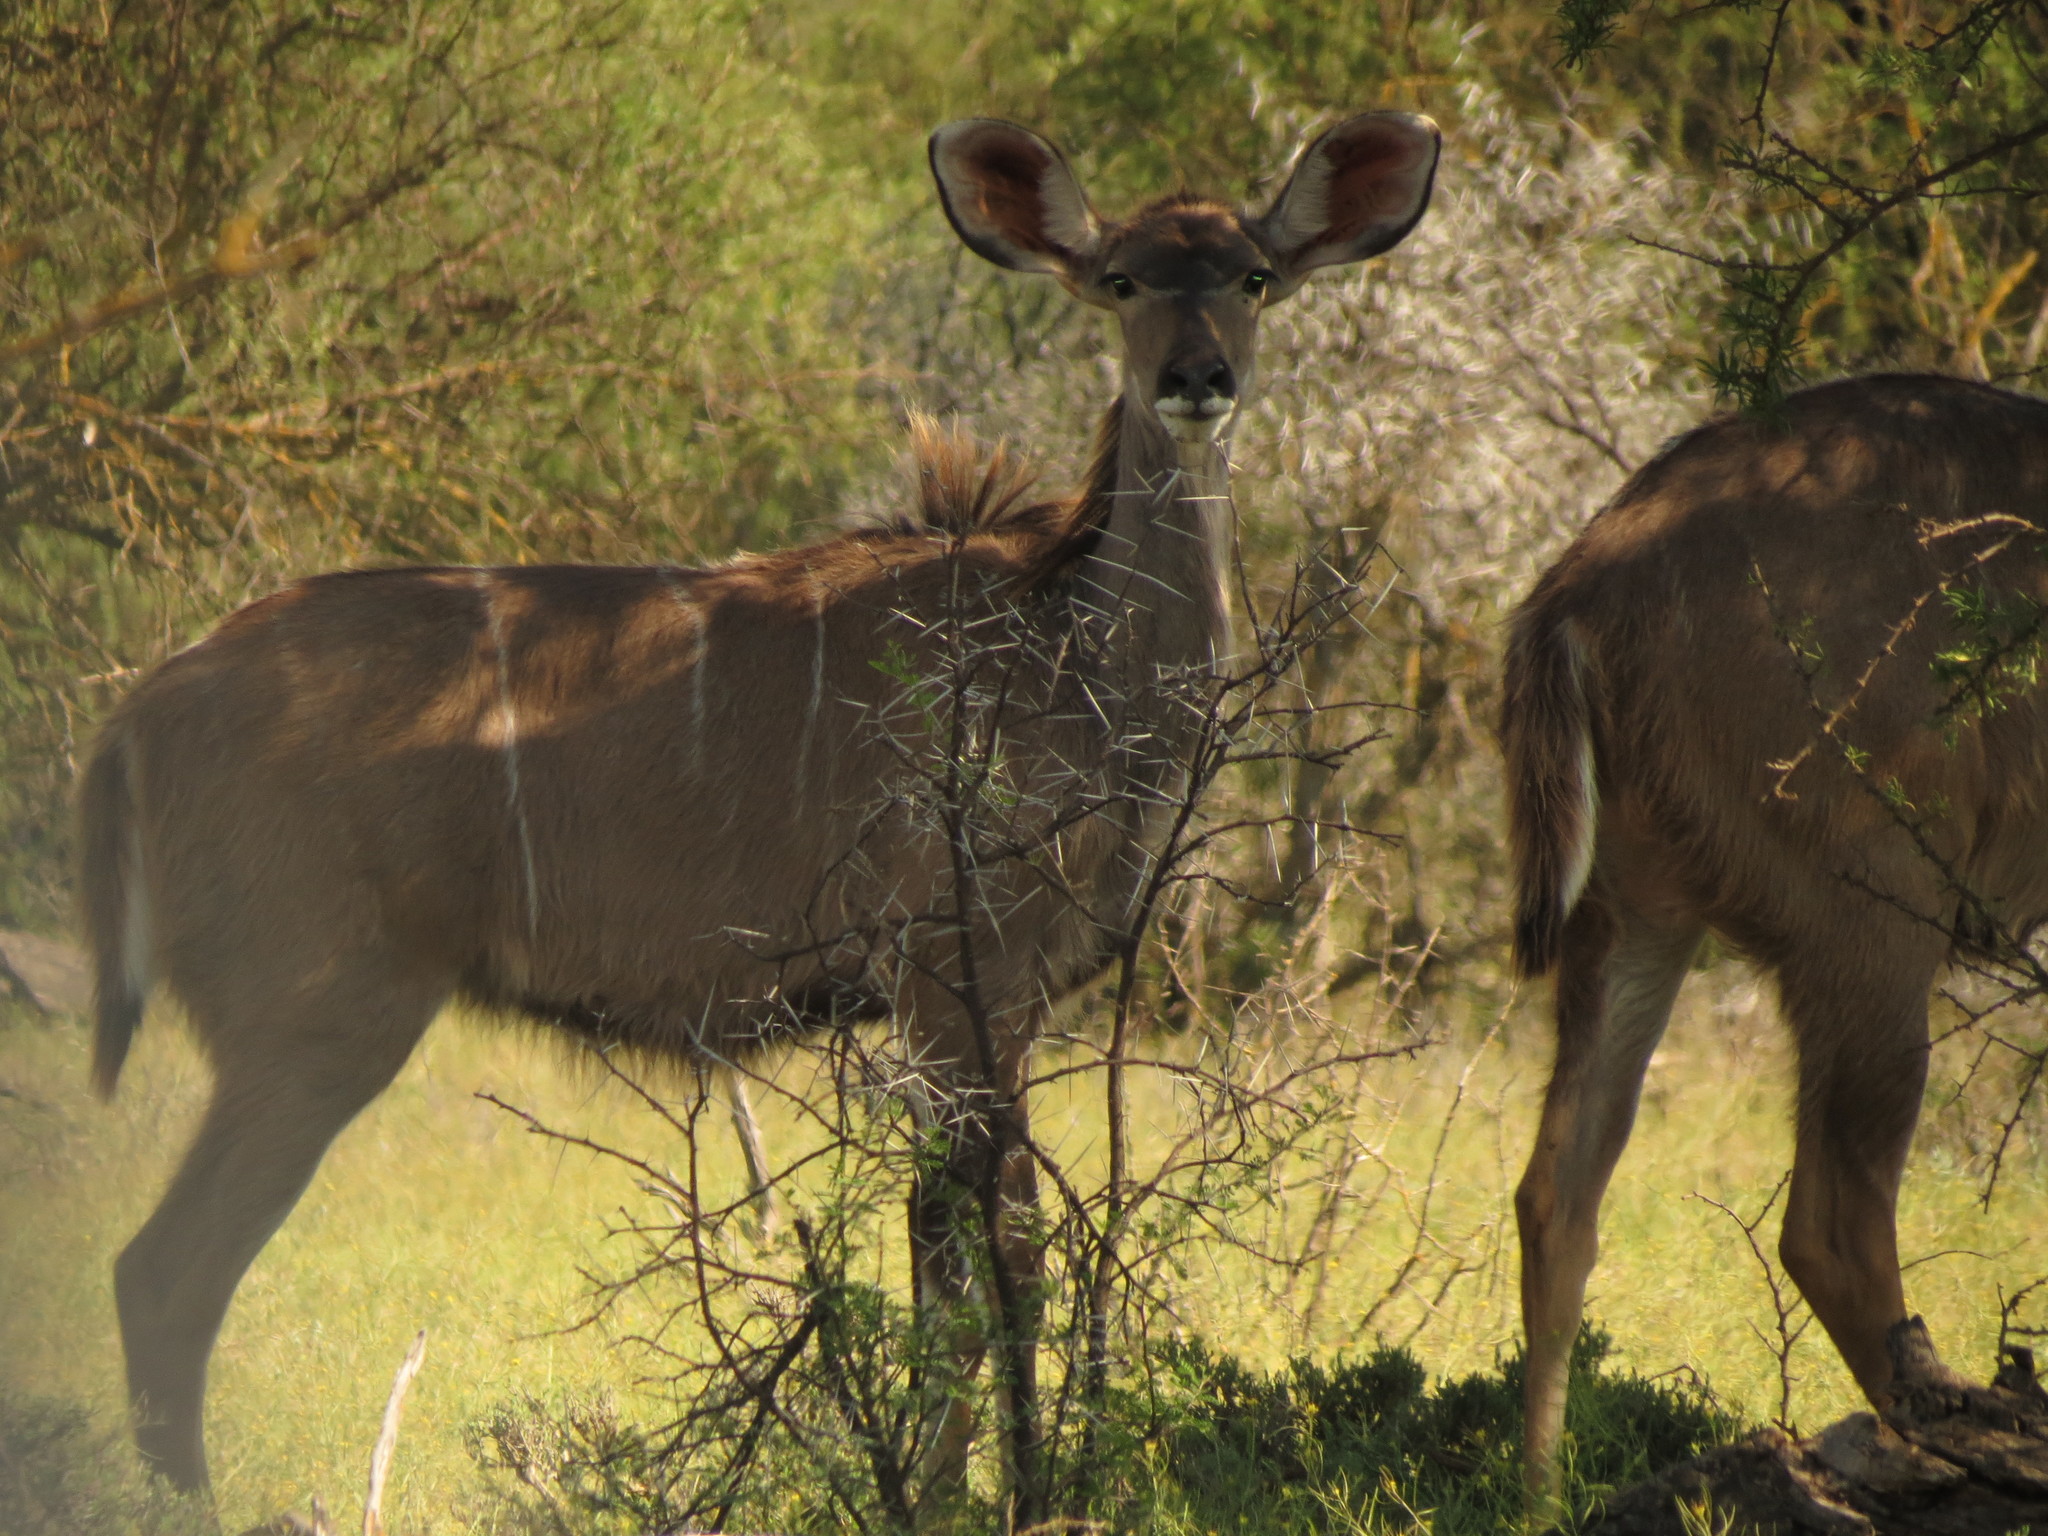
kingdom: Animalia
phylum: Chordata
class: Mammalia
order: Artiodactyla
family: Bovidae
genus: Tragelaphus
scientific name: Tragelaphus strepsiceros
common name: Greater kudu
